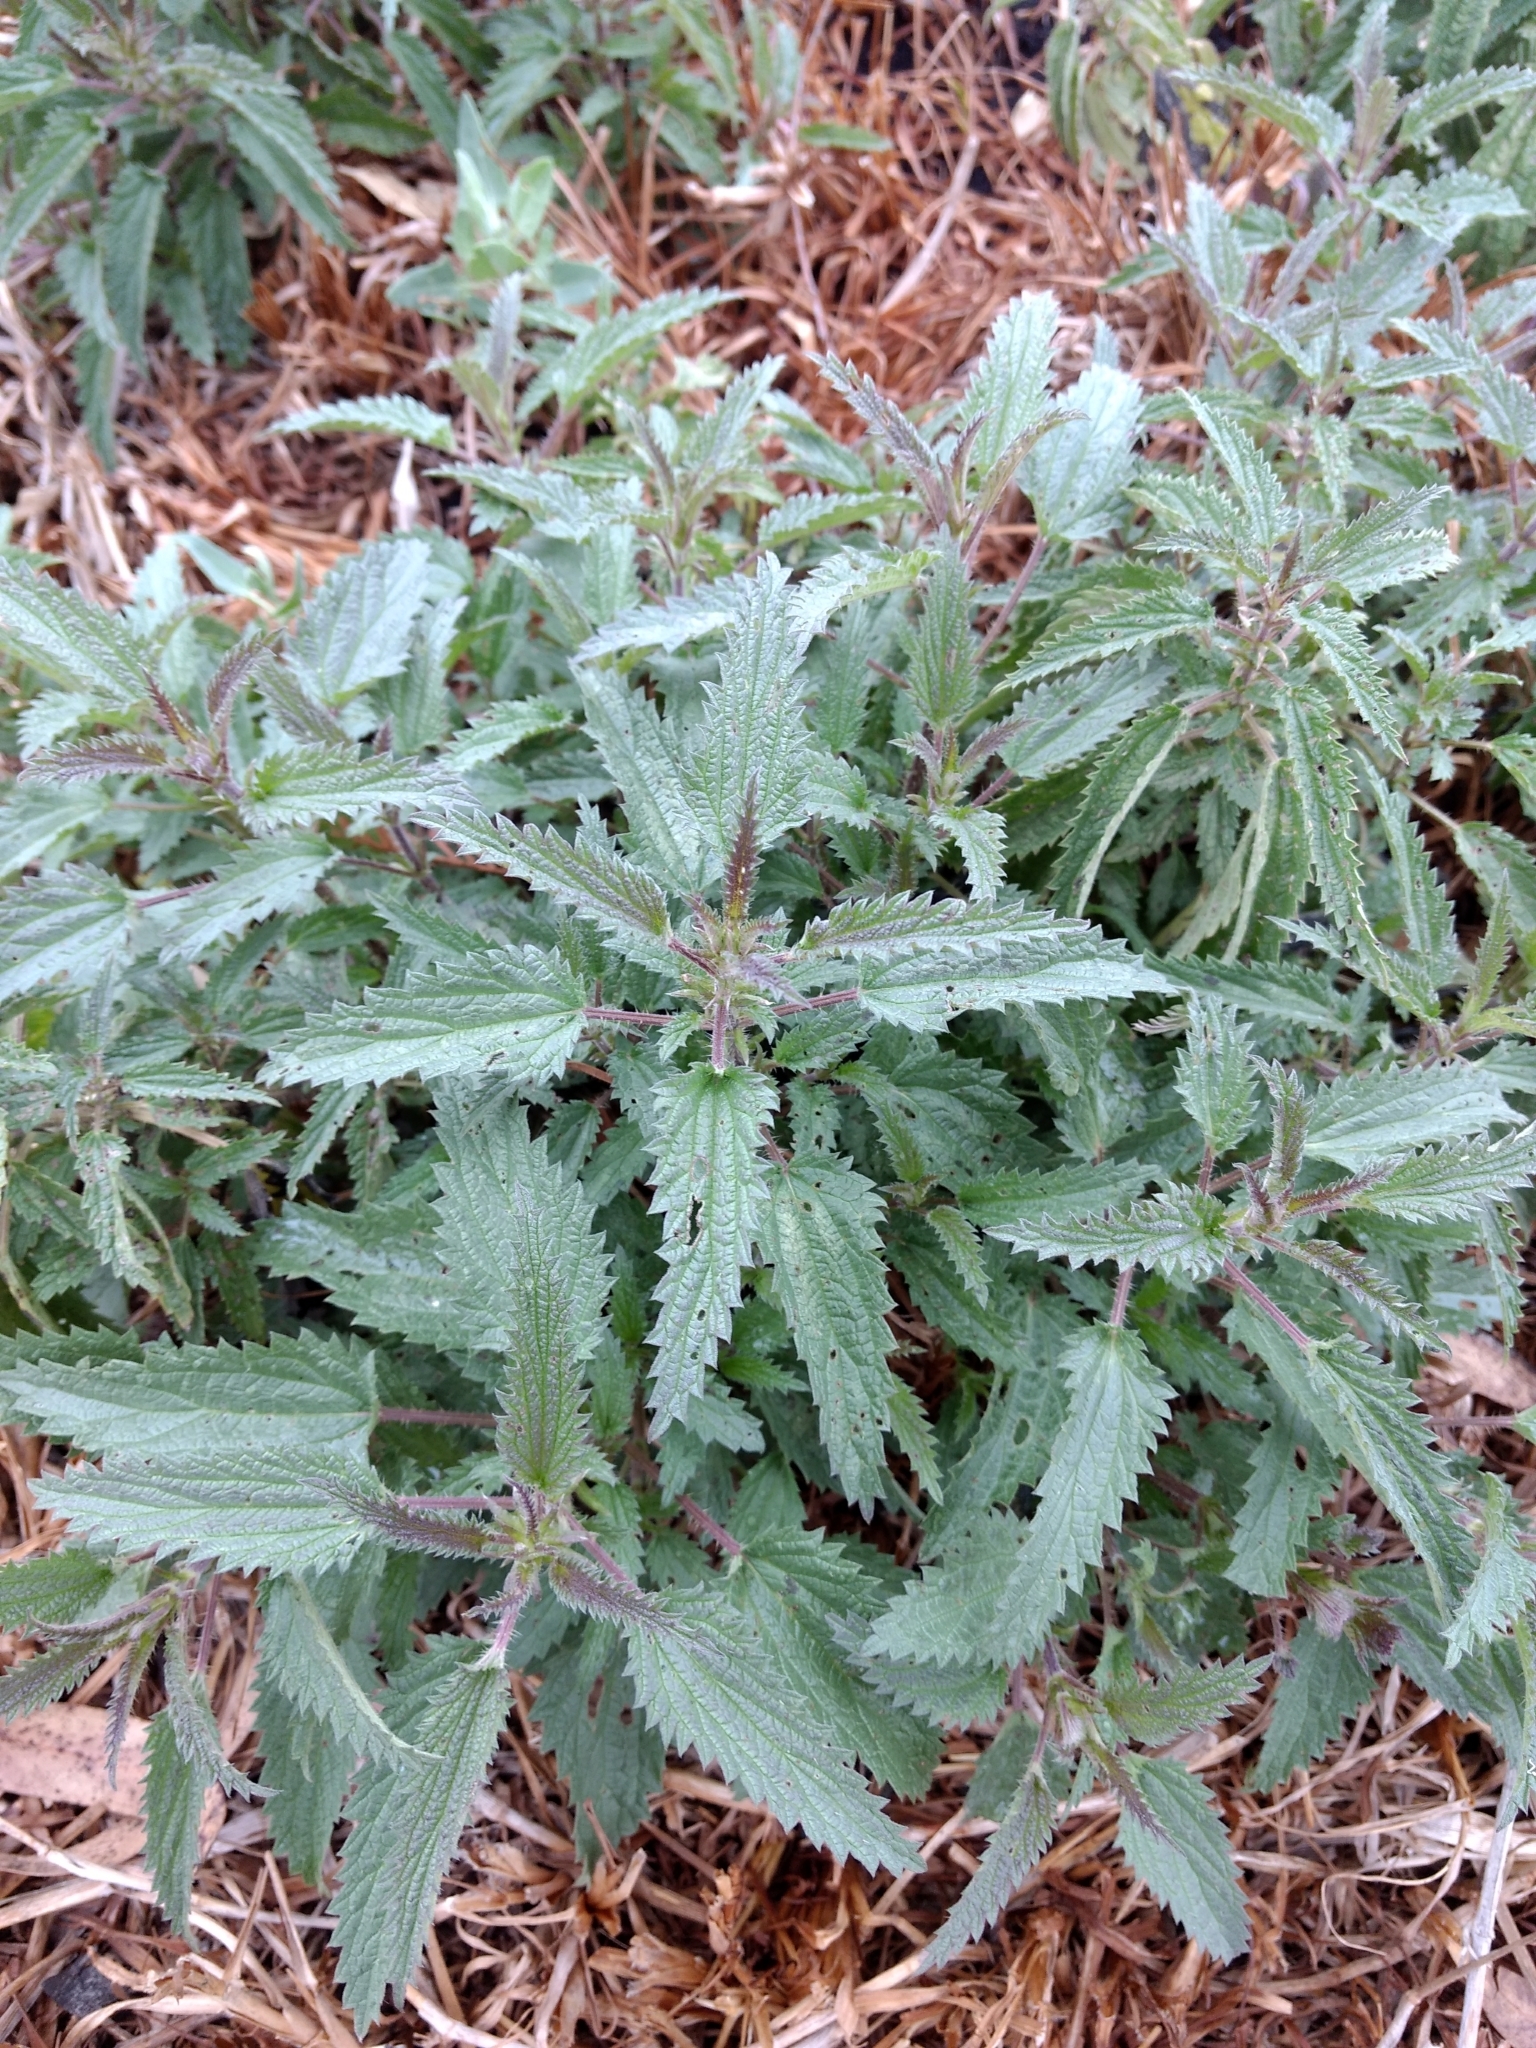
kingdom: Plantae
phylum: Tracheophyta
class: Magnoliopsida
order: Rosales
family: Urticaceae
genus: Urtica
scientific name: Urtica dioica
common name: Common nettle
